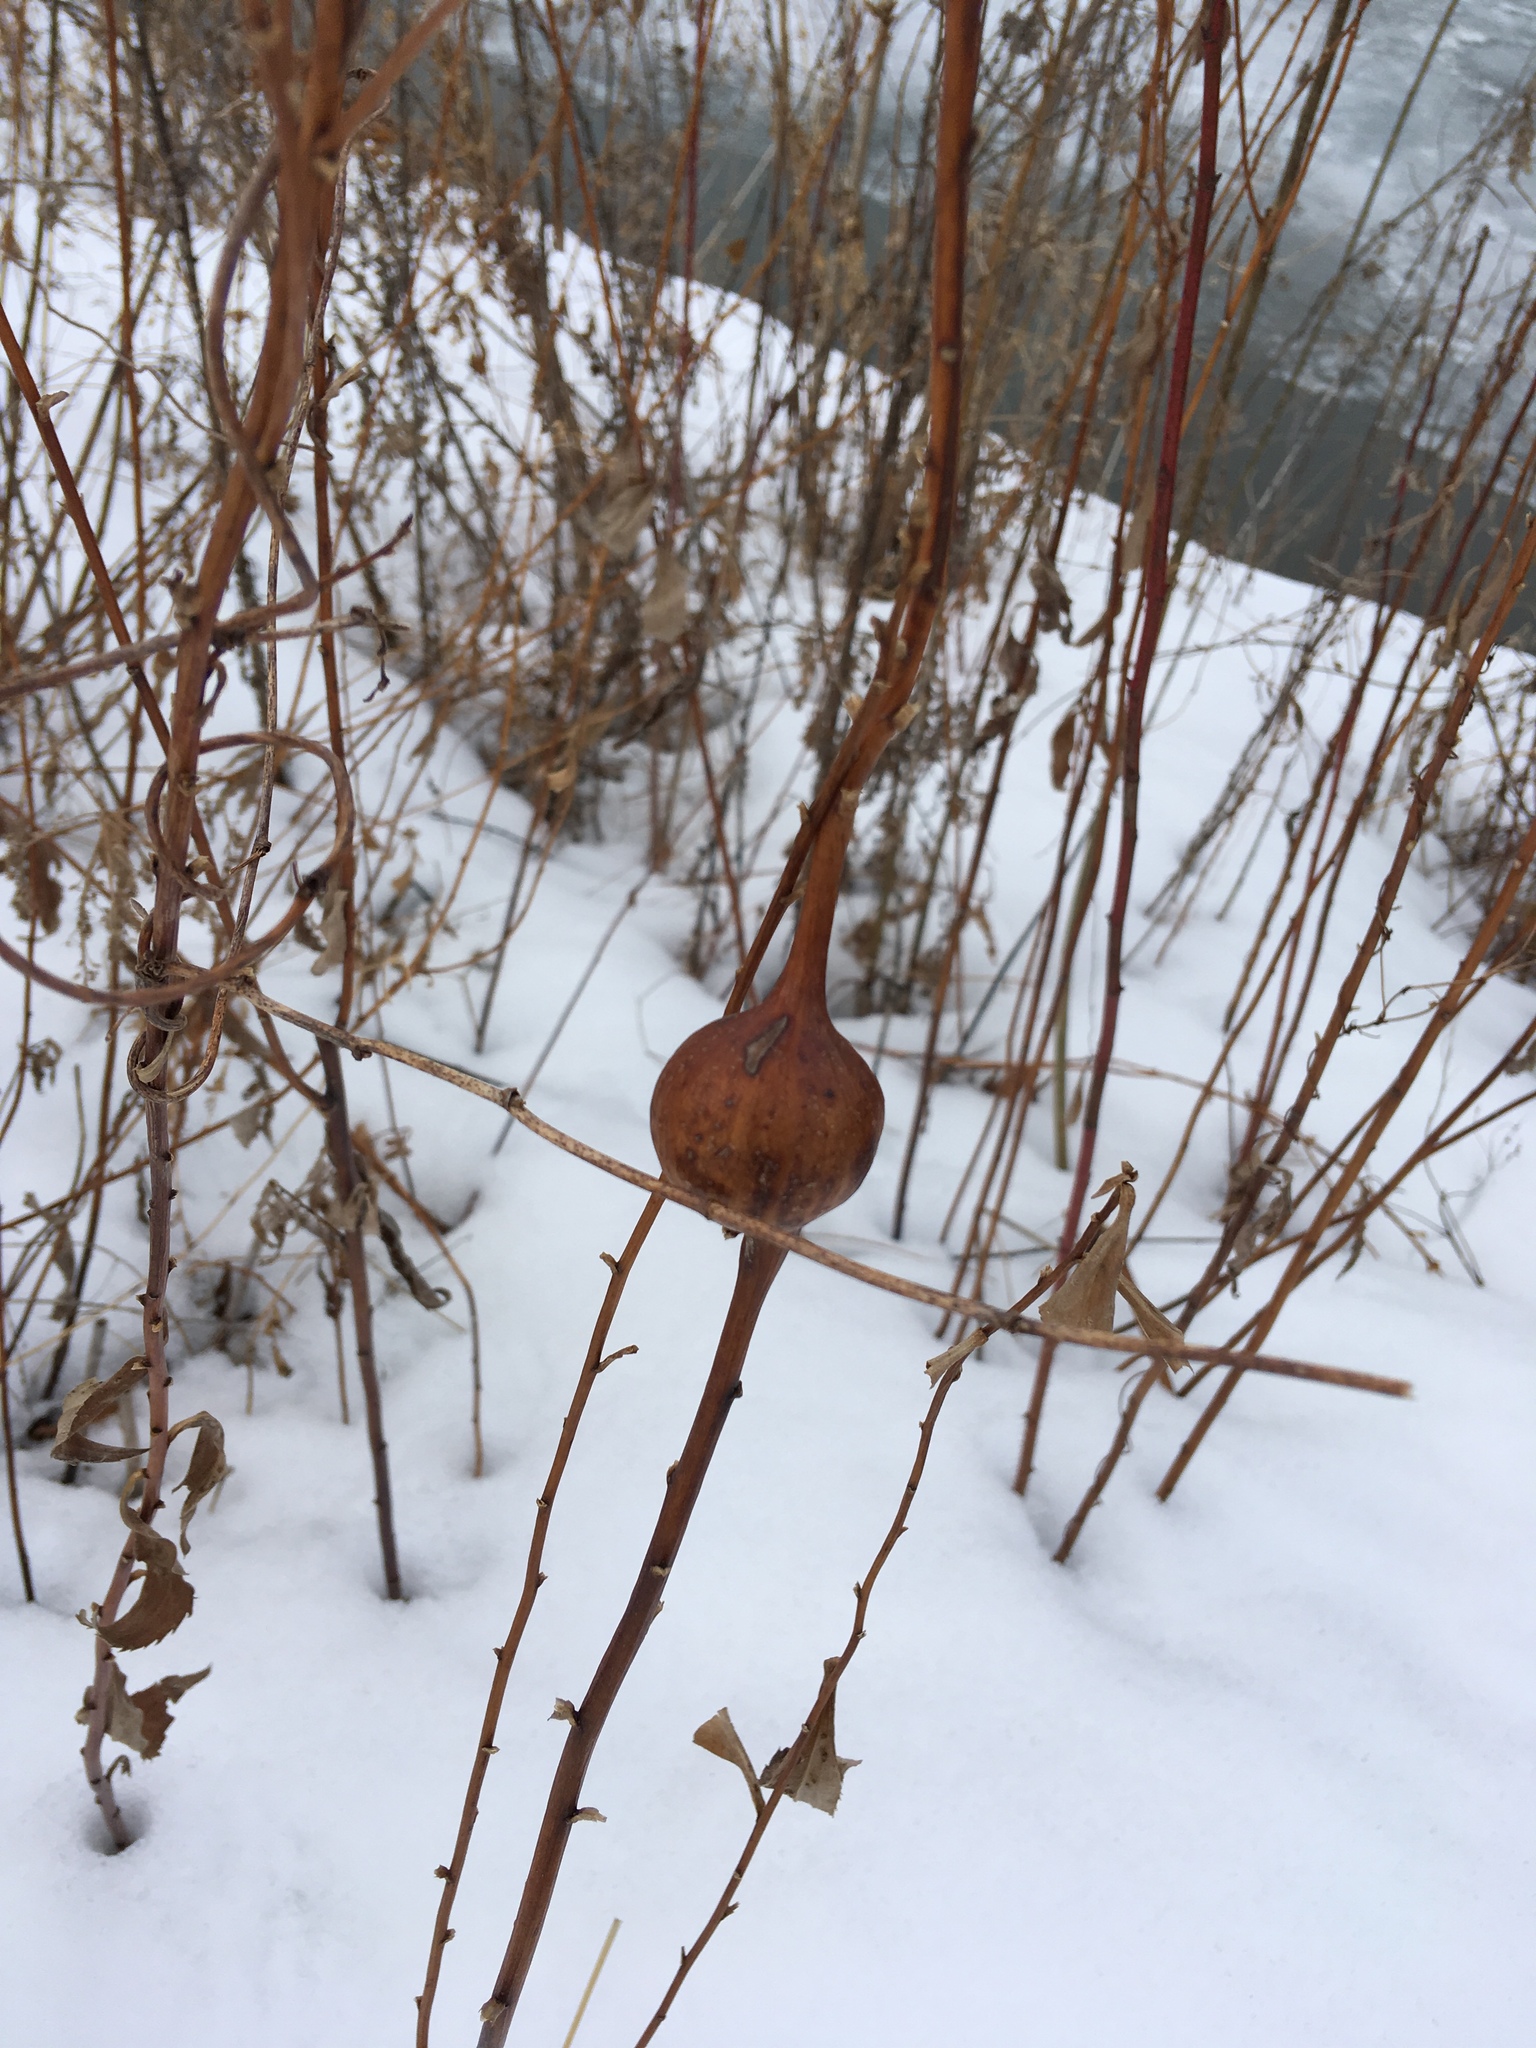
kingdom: Animalia
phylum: Arthropoda
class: Insecta
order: Diptera
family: Tephritidae
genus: Eurosta
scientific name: Eurosta solidaginis
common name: Goldenrod gall fly
